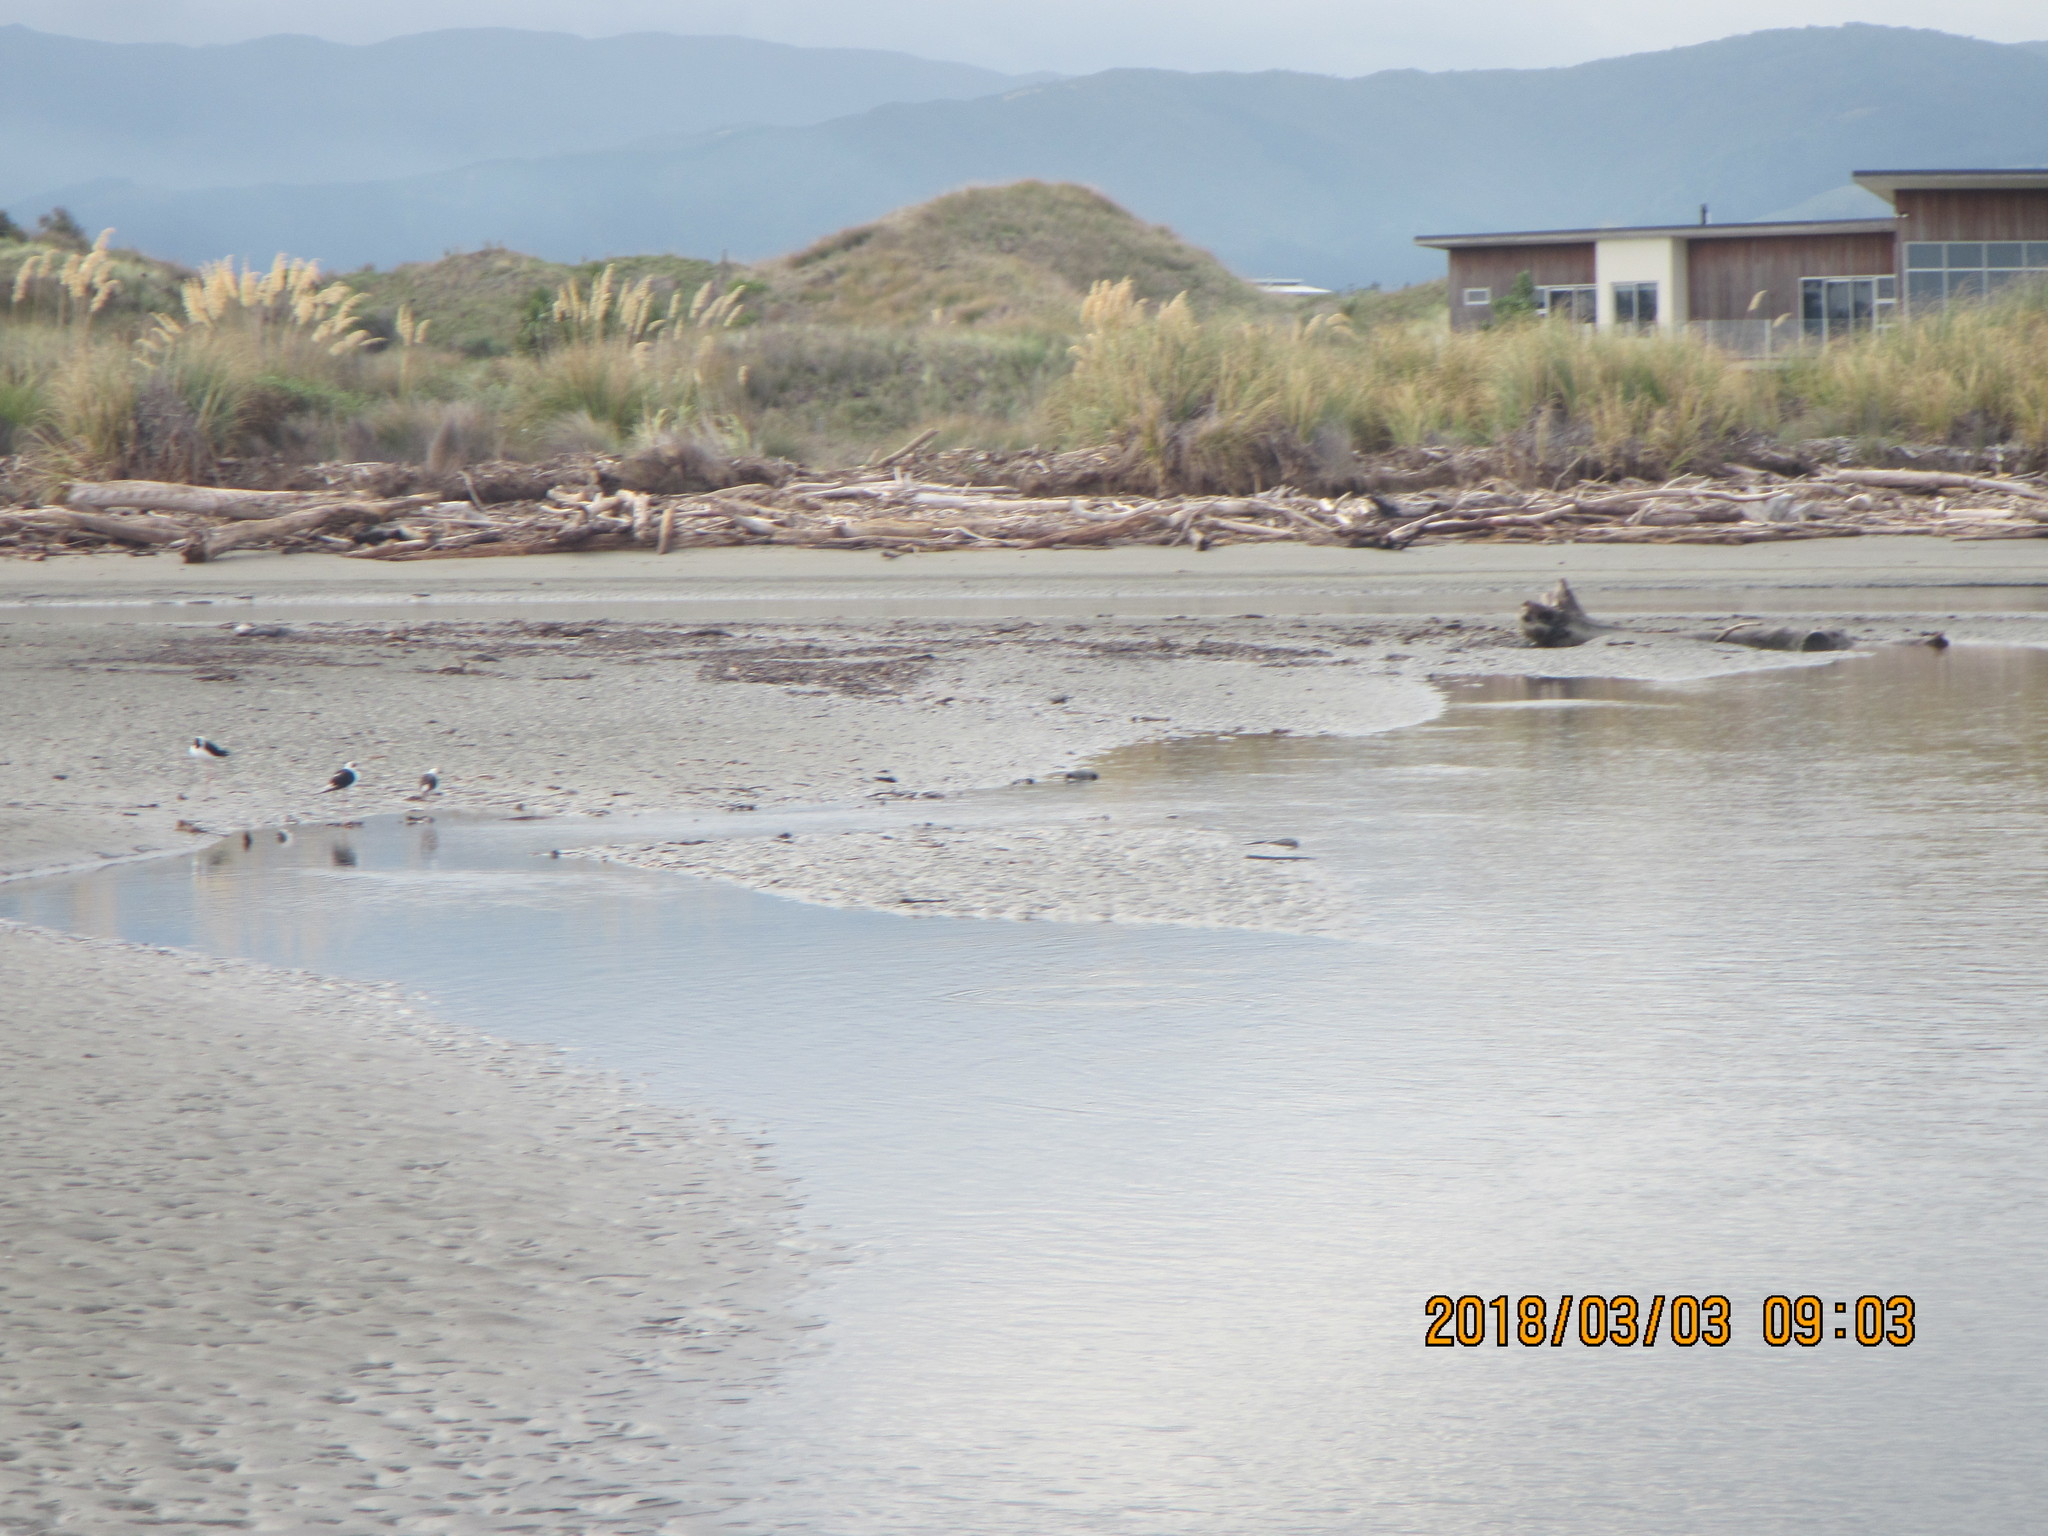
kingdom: Animalia
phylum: Chordata
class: Aves
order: Charadriiformes
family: Recurvirostridae
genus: Himantopus
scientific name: Himantopus leucocephalus
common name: White-headed stilt
